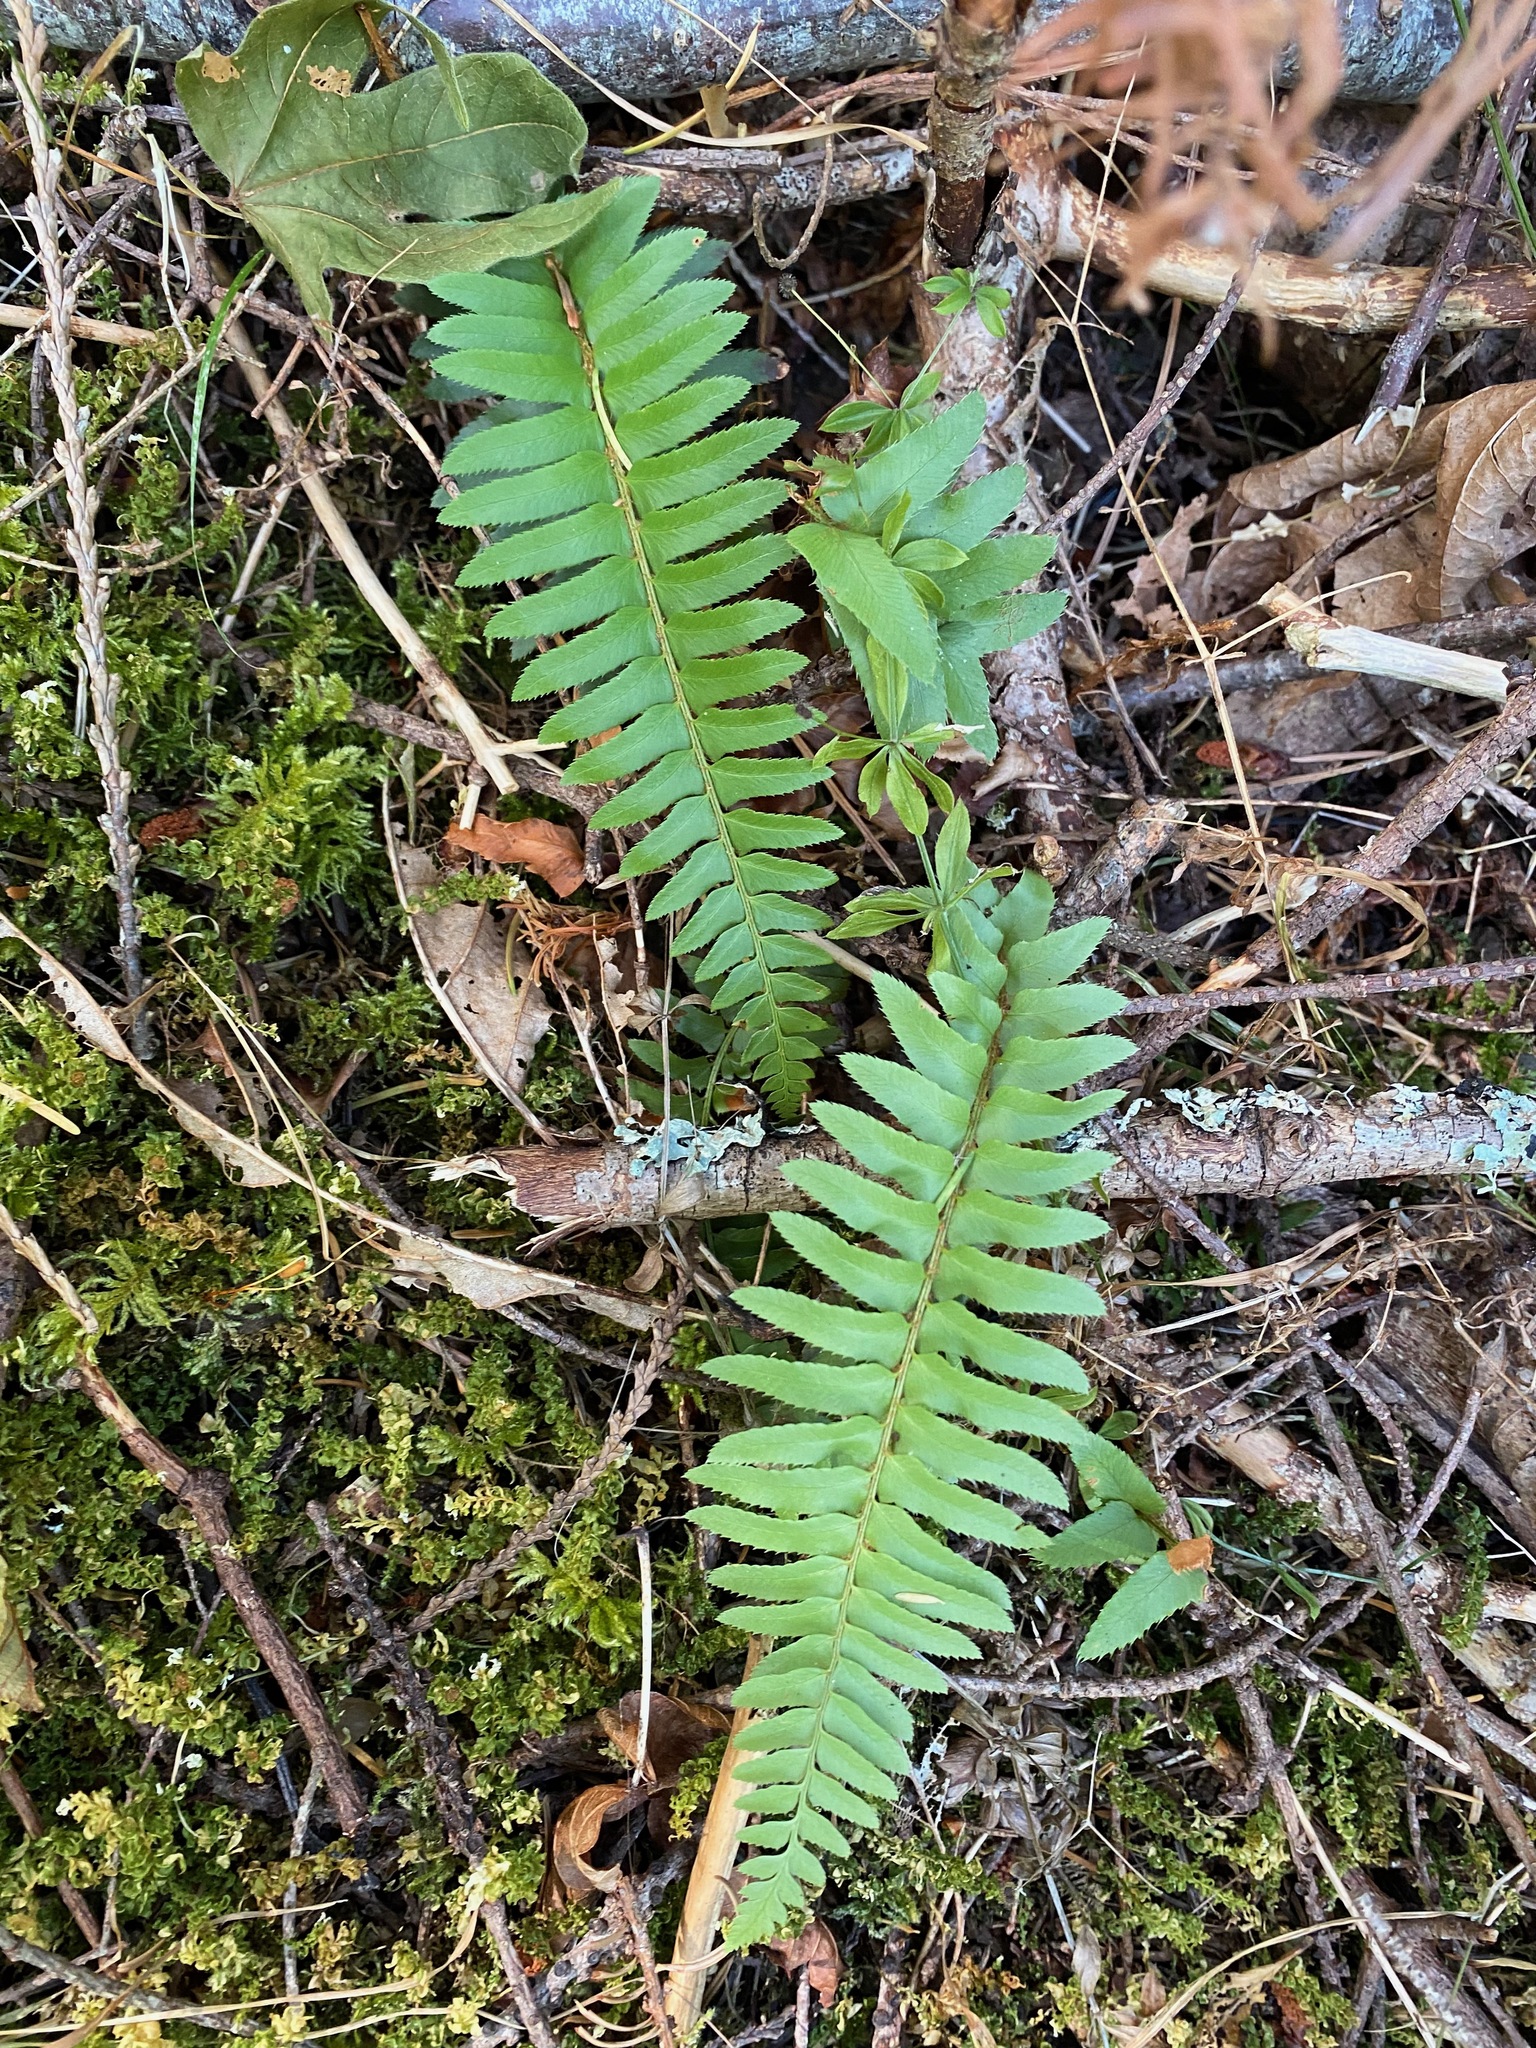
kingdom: Plantae
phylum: Tracheophyta
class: Polypodiopsida
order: Polypodiales
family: Dryopteridaceae
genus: Polystichum
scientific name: Polystichum munitum
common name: Western sword-fern
